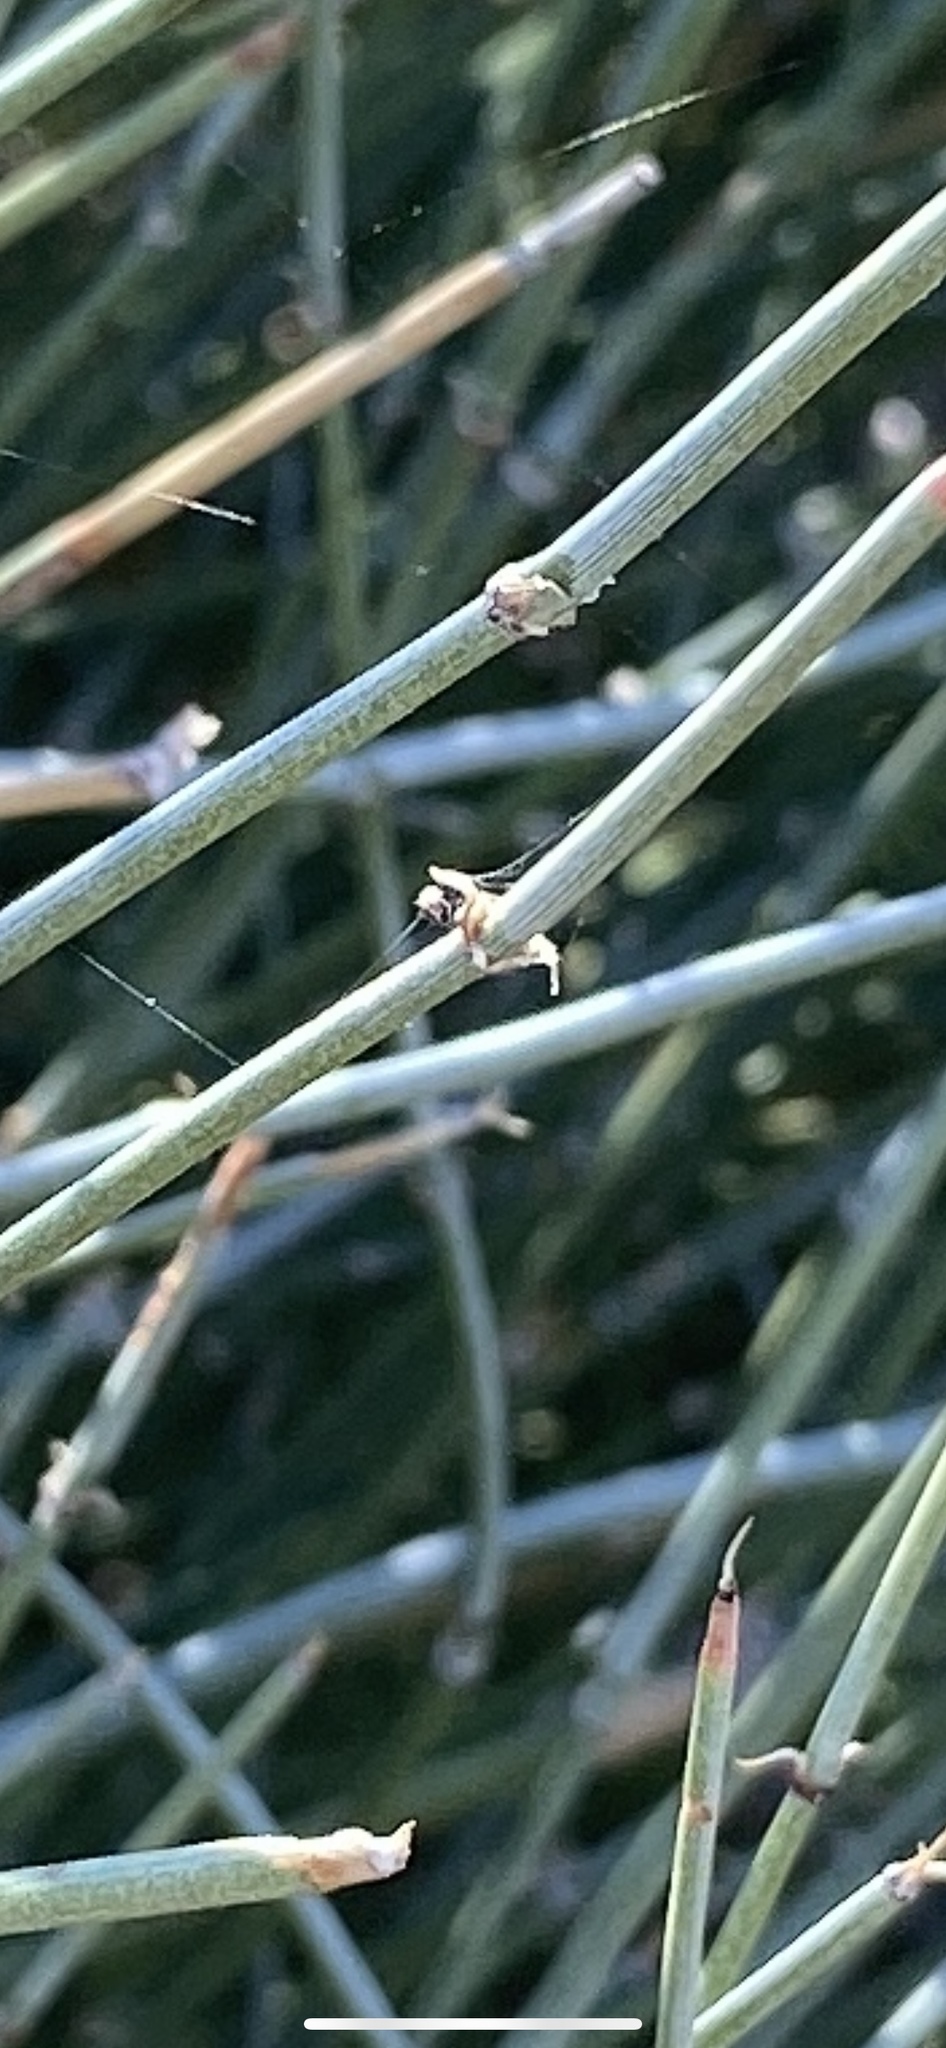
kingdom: Plantae
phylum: Tracheophyta
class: Gnetopsida
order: Ephedrales
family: Ephedraceae
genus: Ephedra
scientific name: Ephedra
